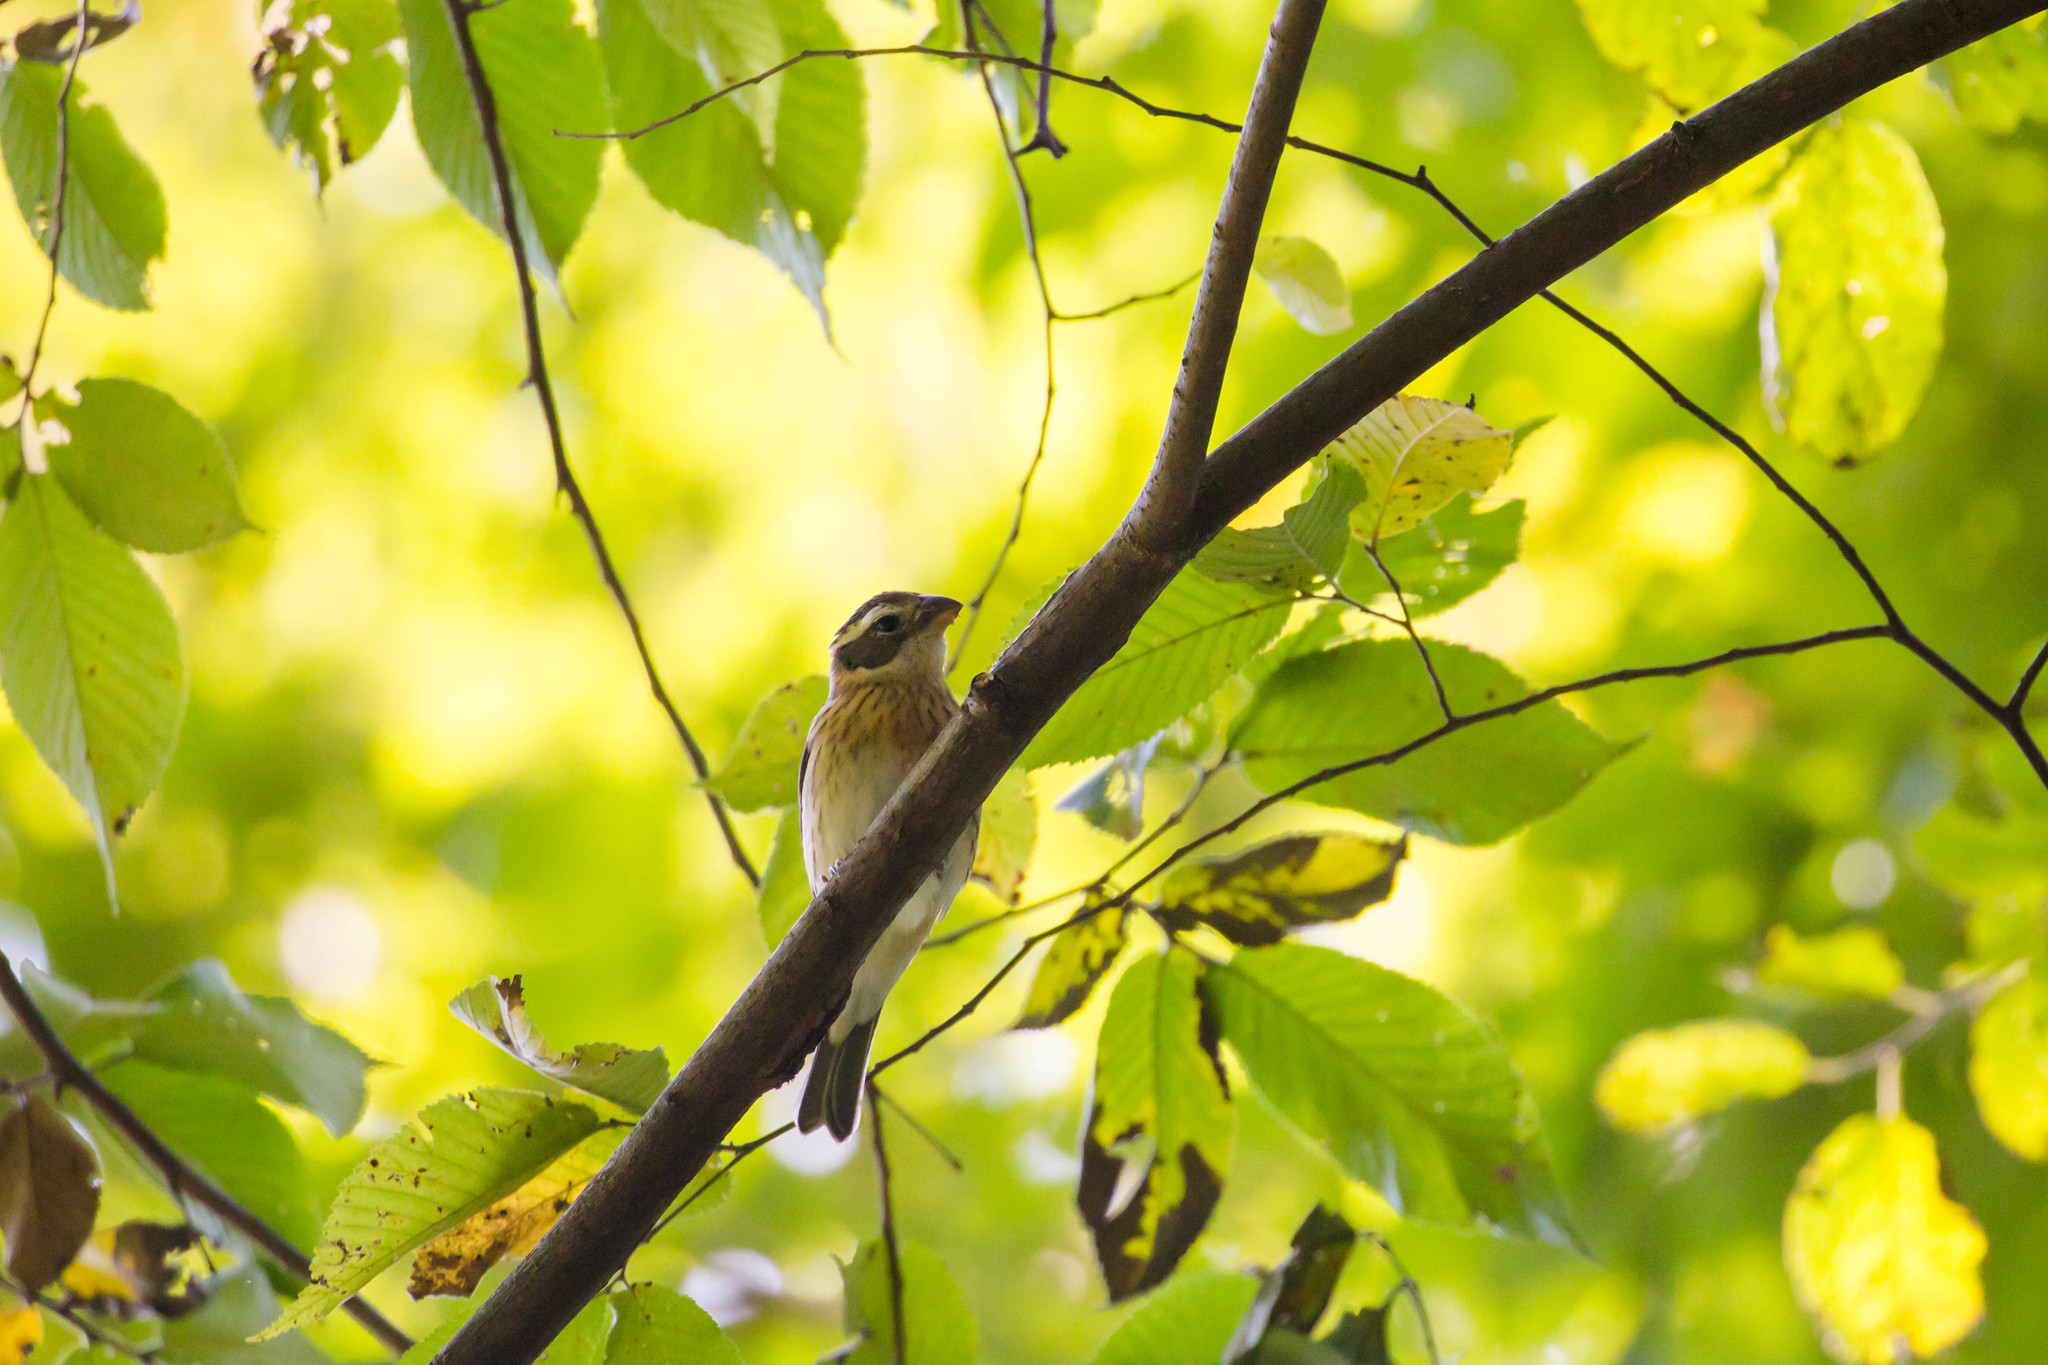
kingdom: Animalia
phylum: Chordata
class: Aves
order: Passeriformes
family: Cardinalidae
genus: Pheucticus
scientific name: Pheucticus ludovicianus
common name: Rose-breasted grosbeak
